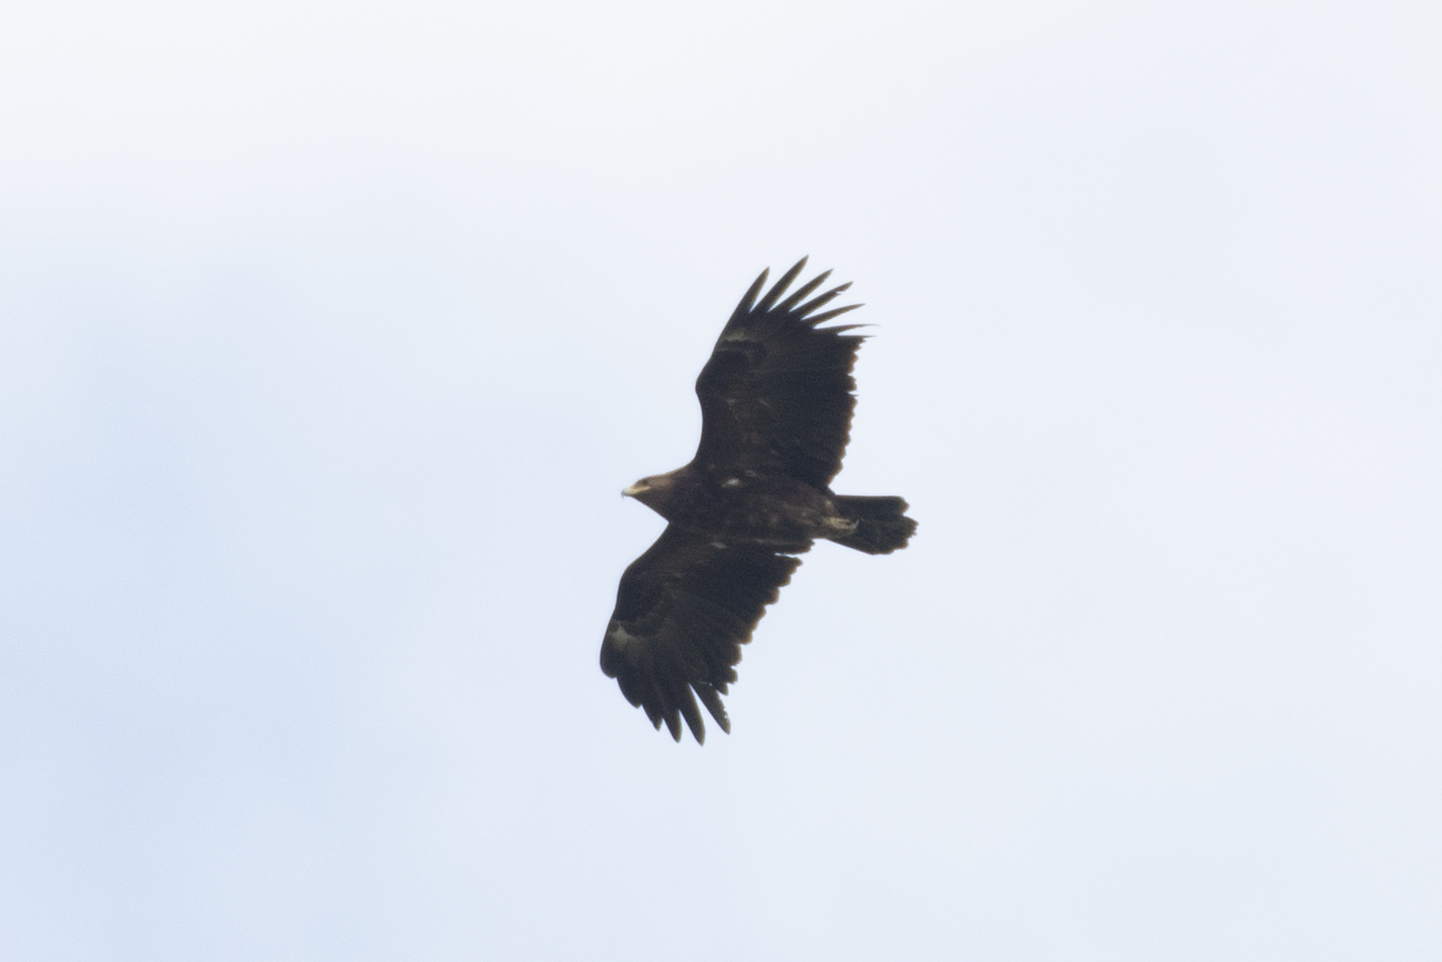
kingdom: Animalia
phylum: Chordata
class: Aves
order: Accipitriformes
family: Accipitridae
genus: Aquila
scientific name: Aquila clanga
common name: Greater spotted eagle
